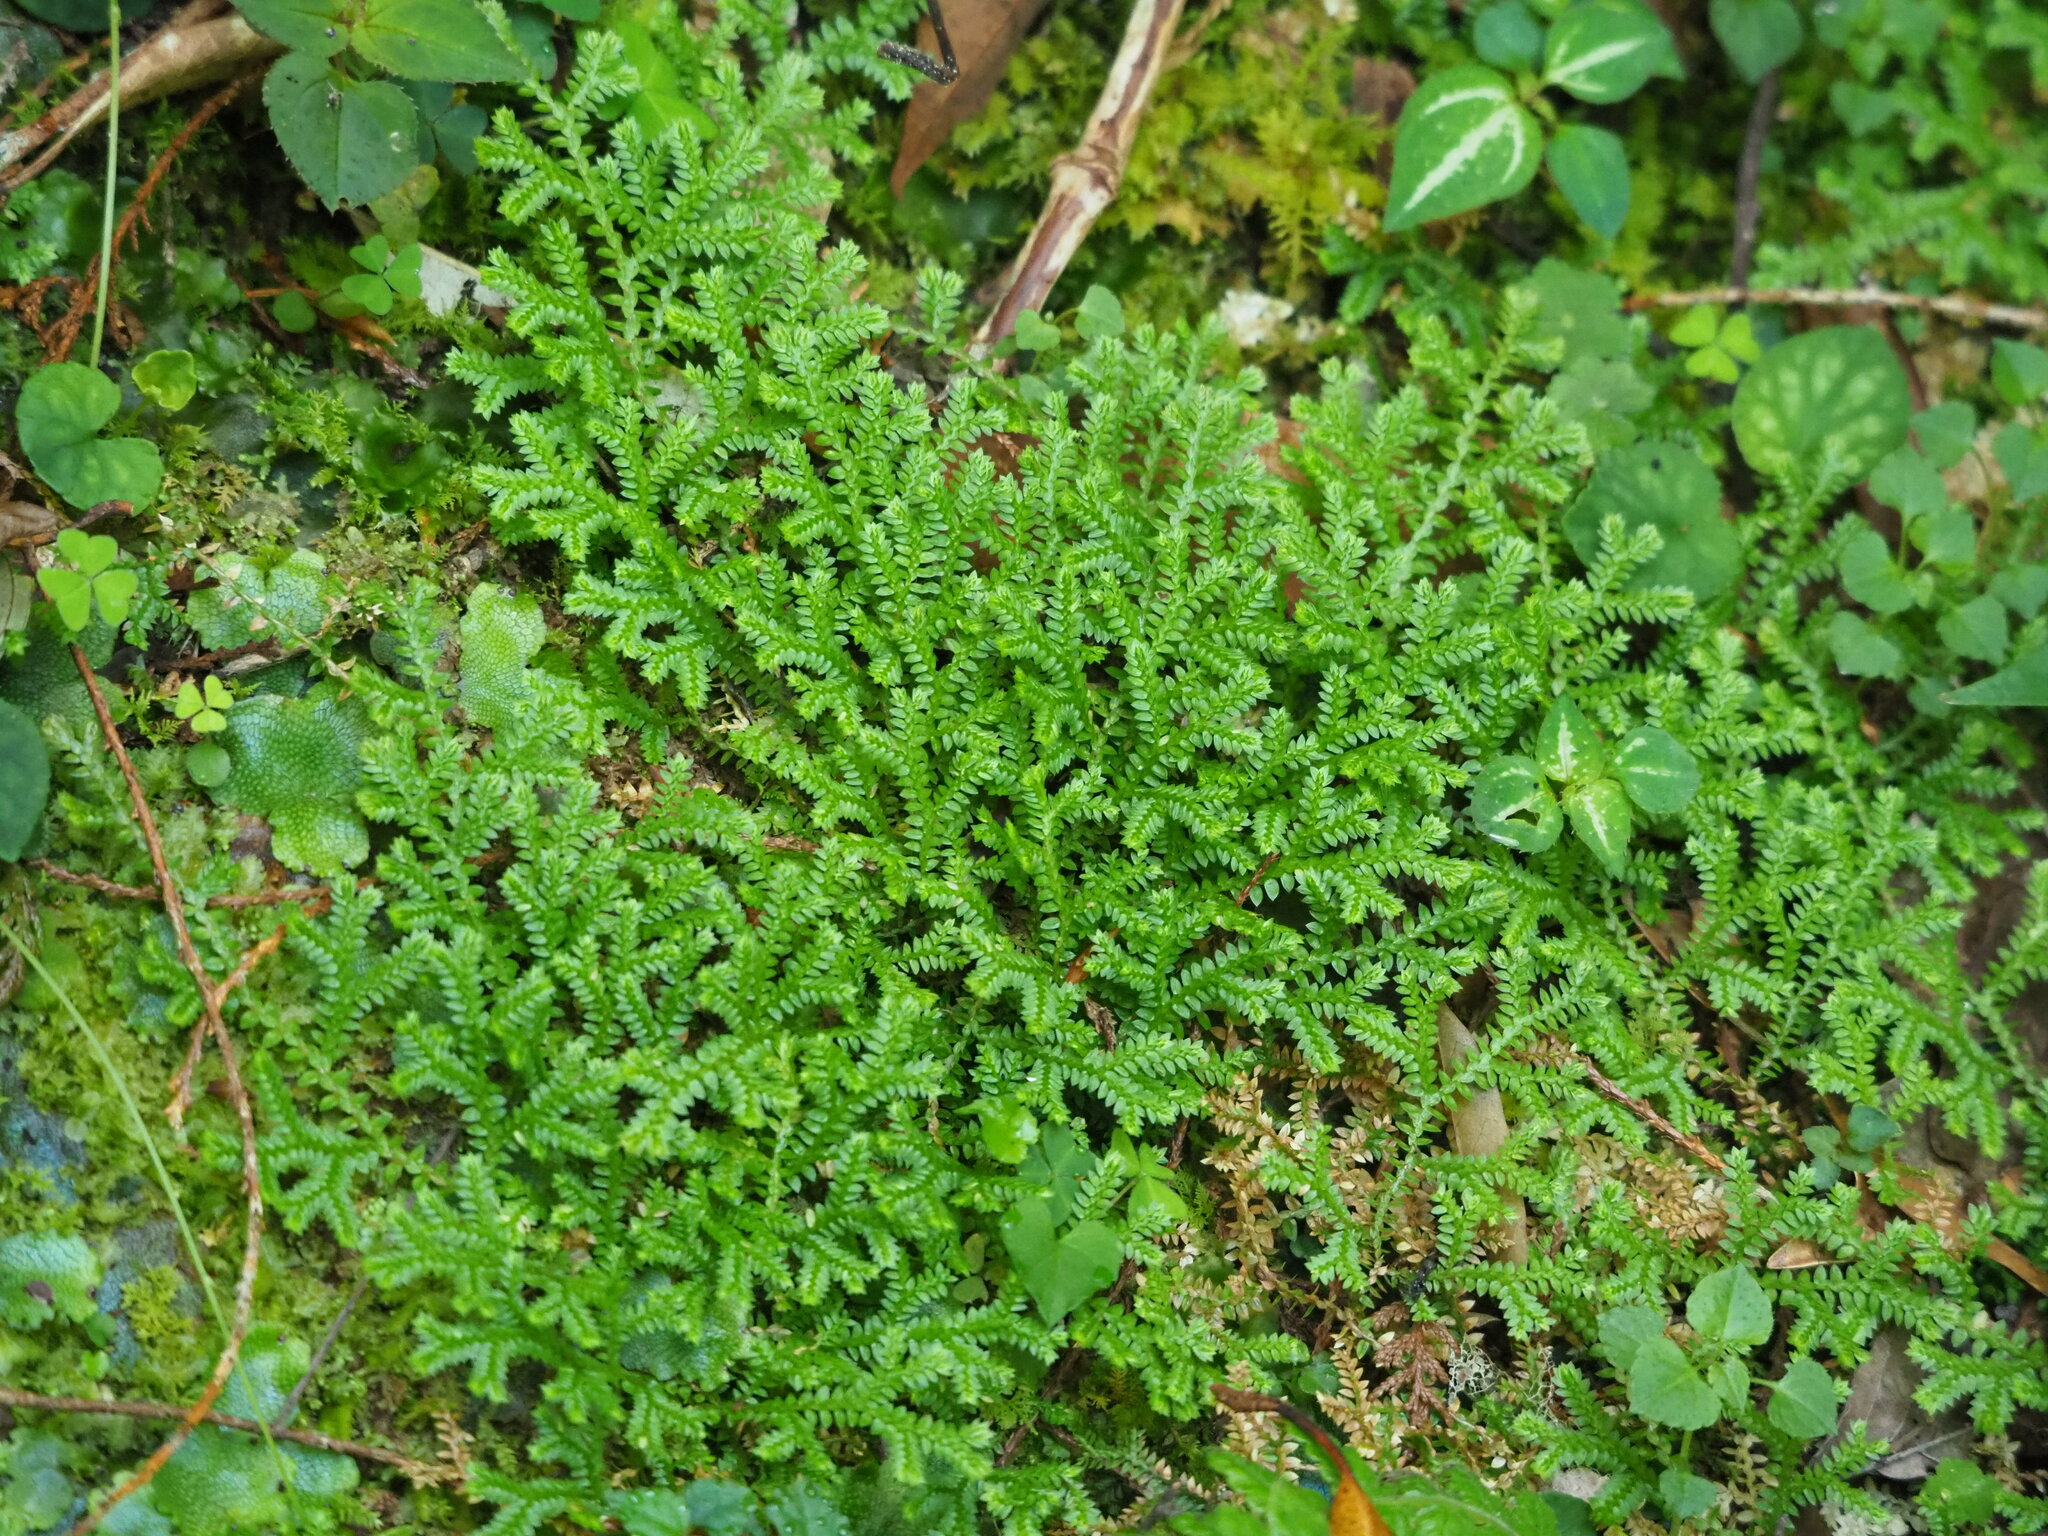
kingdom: Plantae
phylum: Tracheophyta
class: Lycopodiopsida
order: Selaginellales
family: Selaginellaceae
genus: Selaginella
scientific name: Selaginella remotifolia
